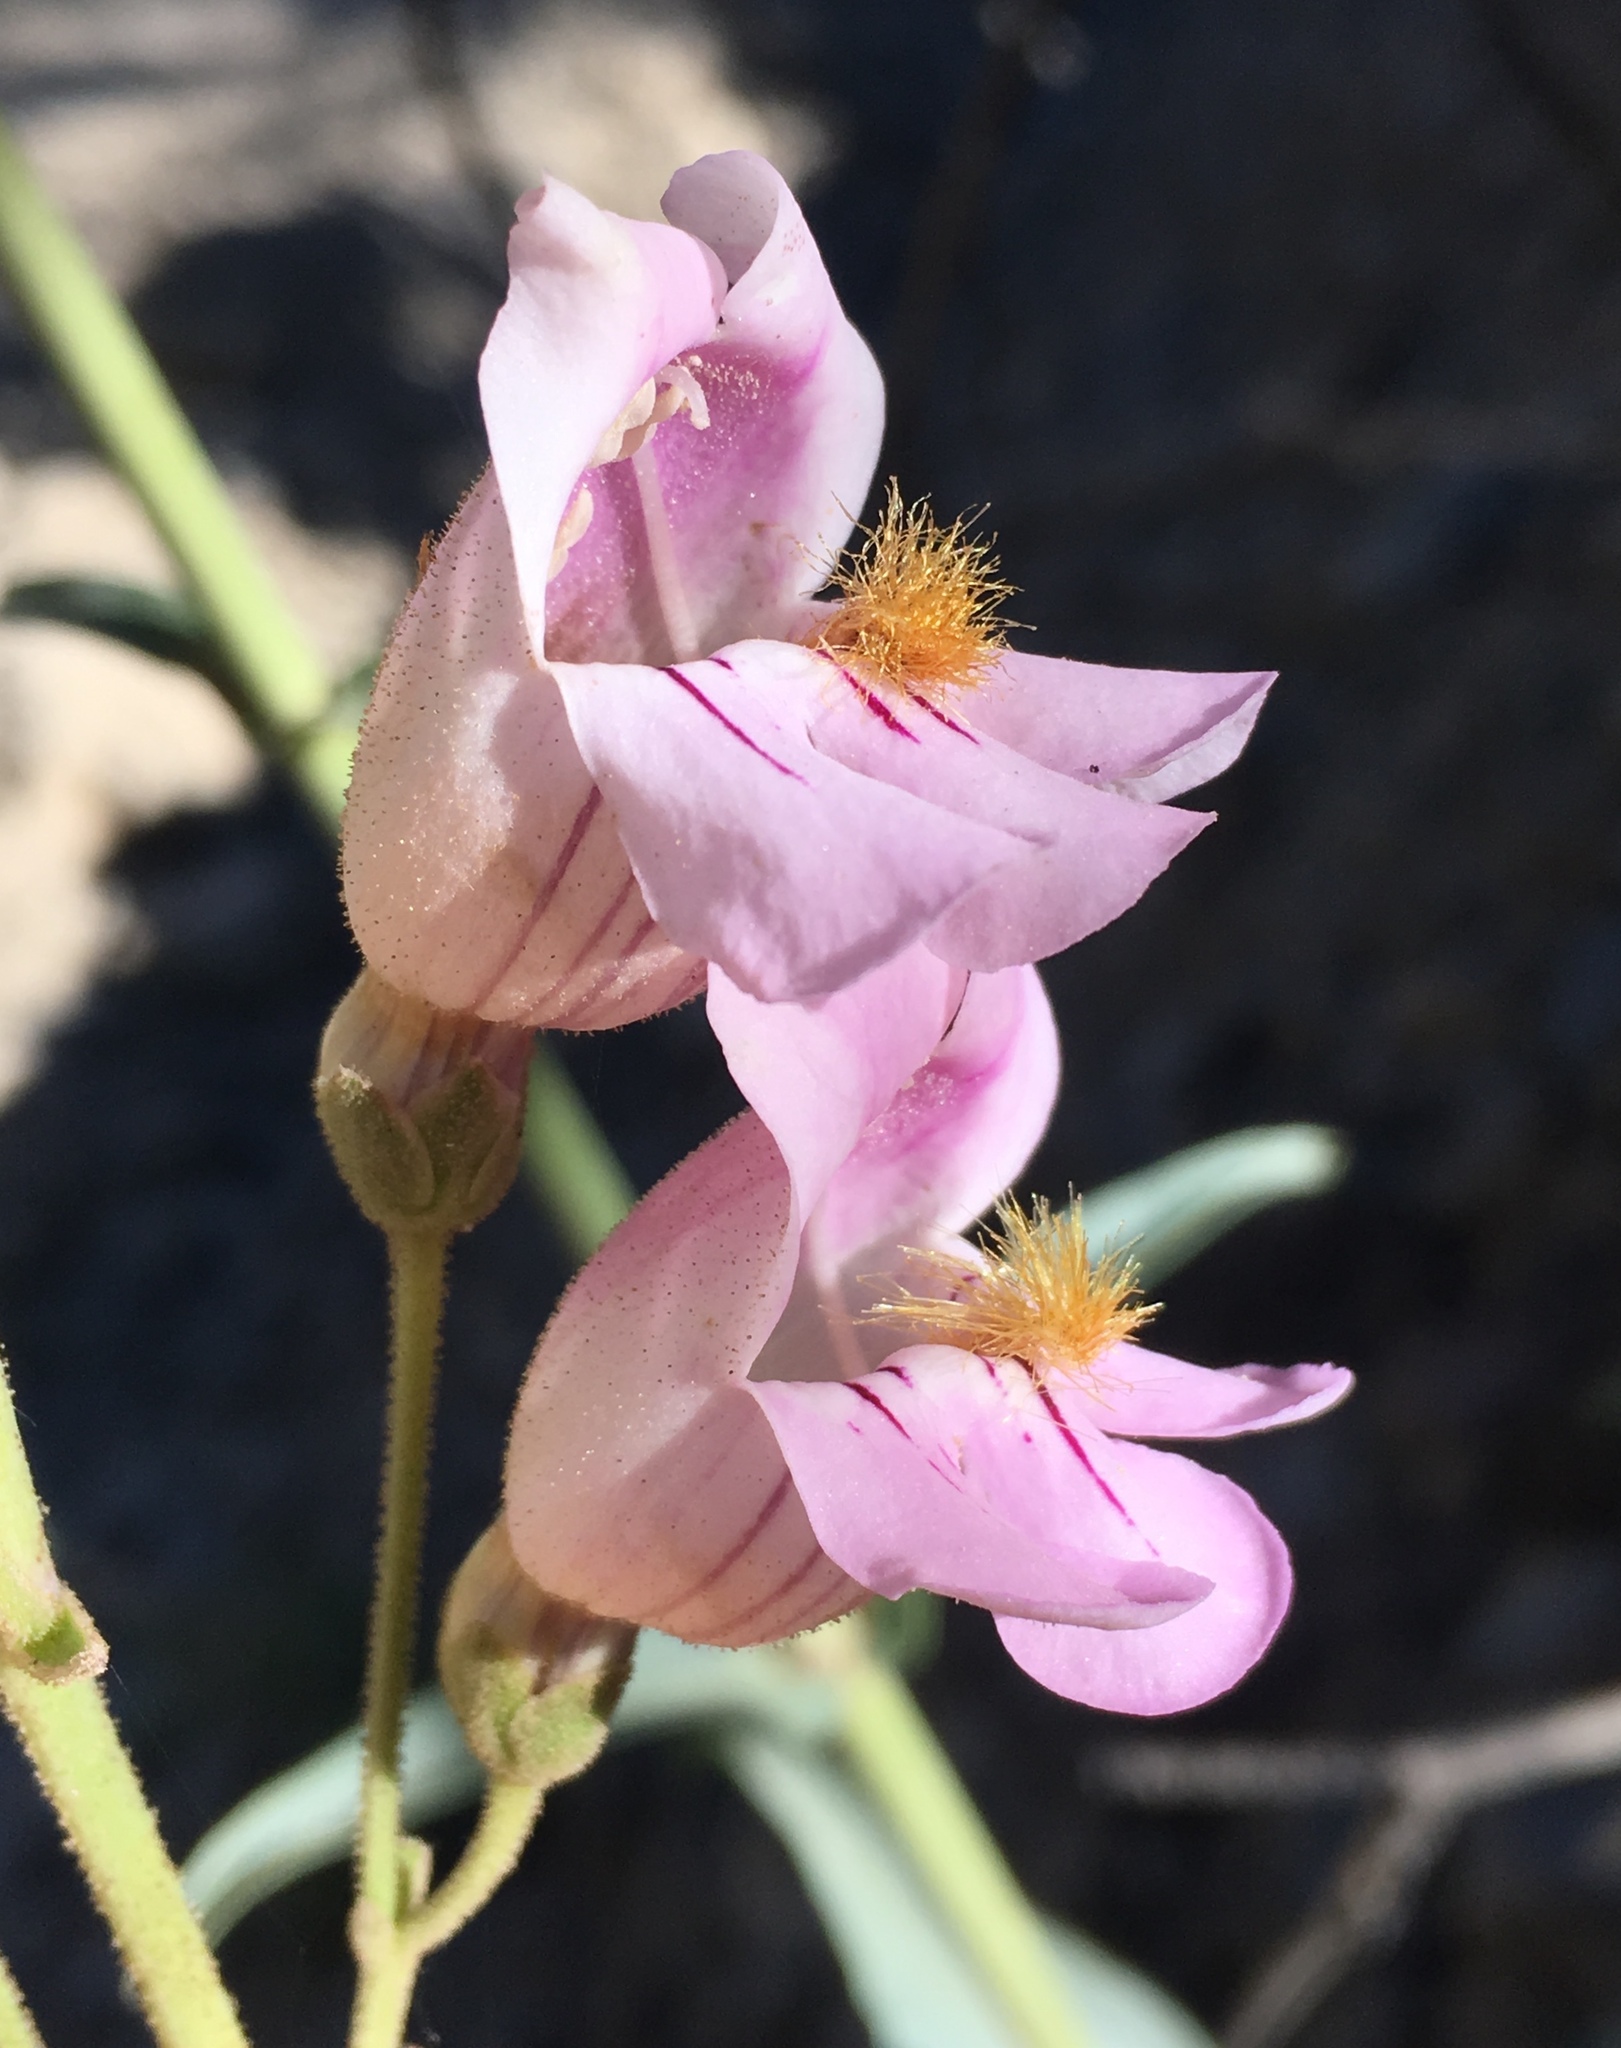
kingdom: Plantae
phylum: Tracheophyta
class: Magnoliopsida
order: Lamiales
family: Plantaginaceae
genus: Penstemon
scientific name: Penstemon palmeri
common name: Palmer penstemon
